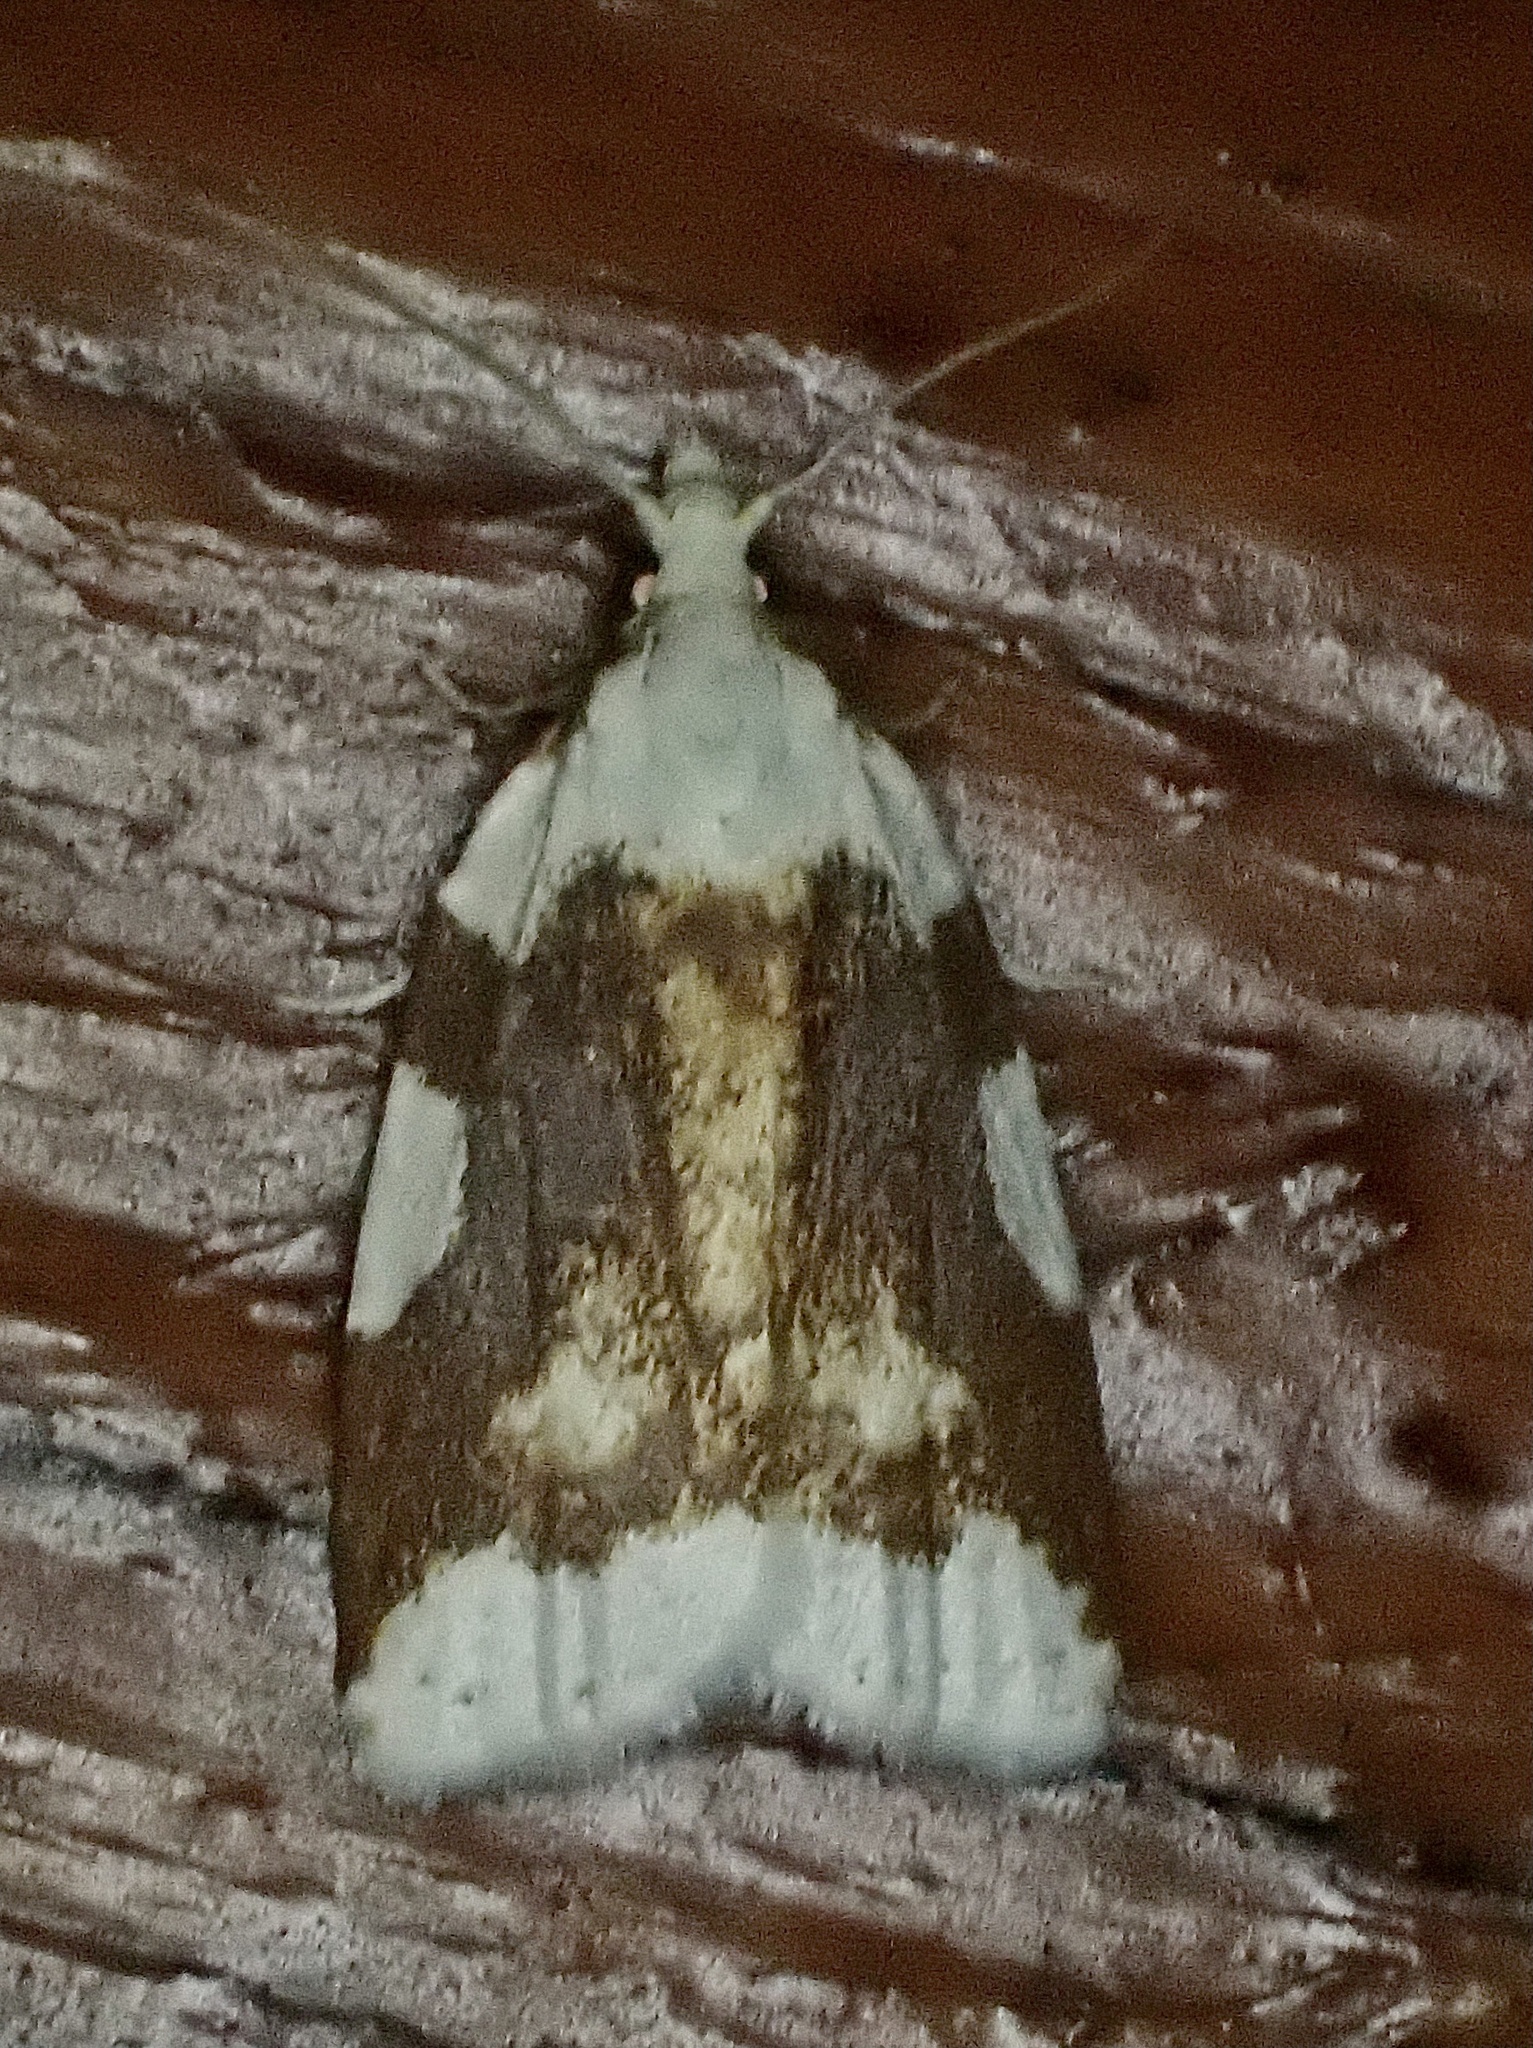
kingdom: Animalia
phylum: Arthropoda
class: Insecta
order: Lepidoptera
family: Tortricidae
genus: Cenopis
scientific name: Cenopis niveana
